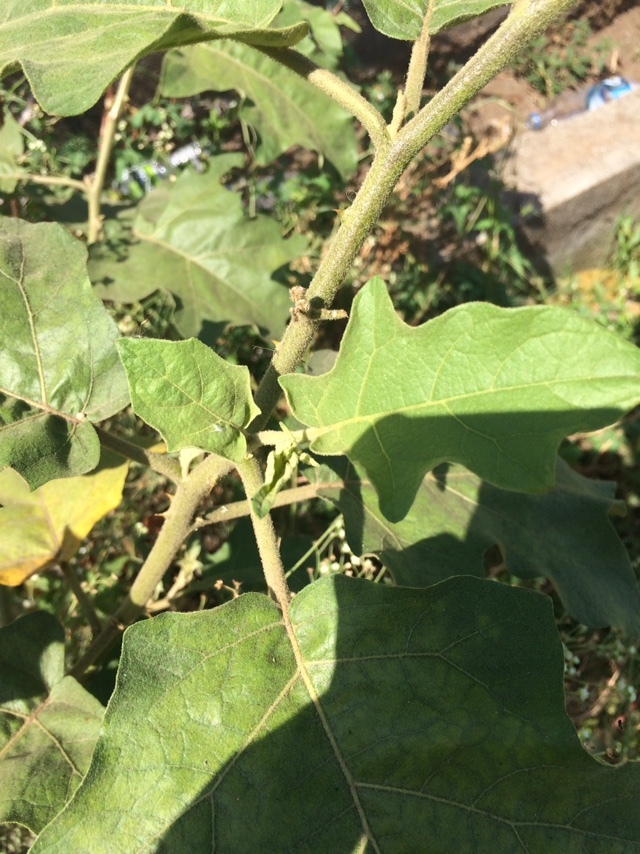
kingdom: Plantae
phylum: Tracheophyta
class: Magnoliopsida
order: Solanales
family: Solanaceae
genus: Solanum
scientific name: Solanum torvum
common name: Turkey berry
